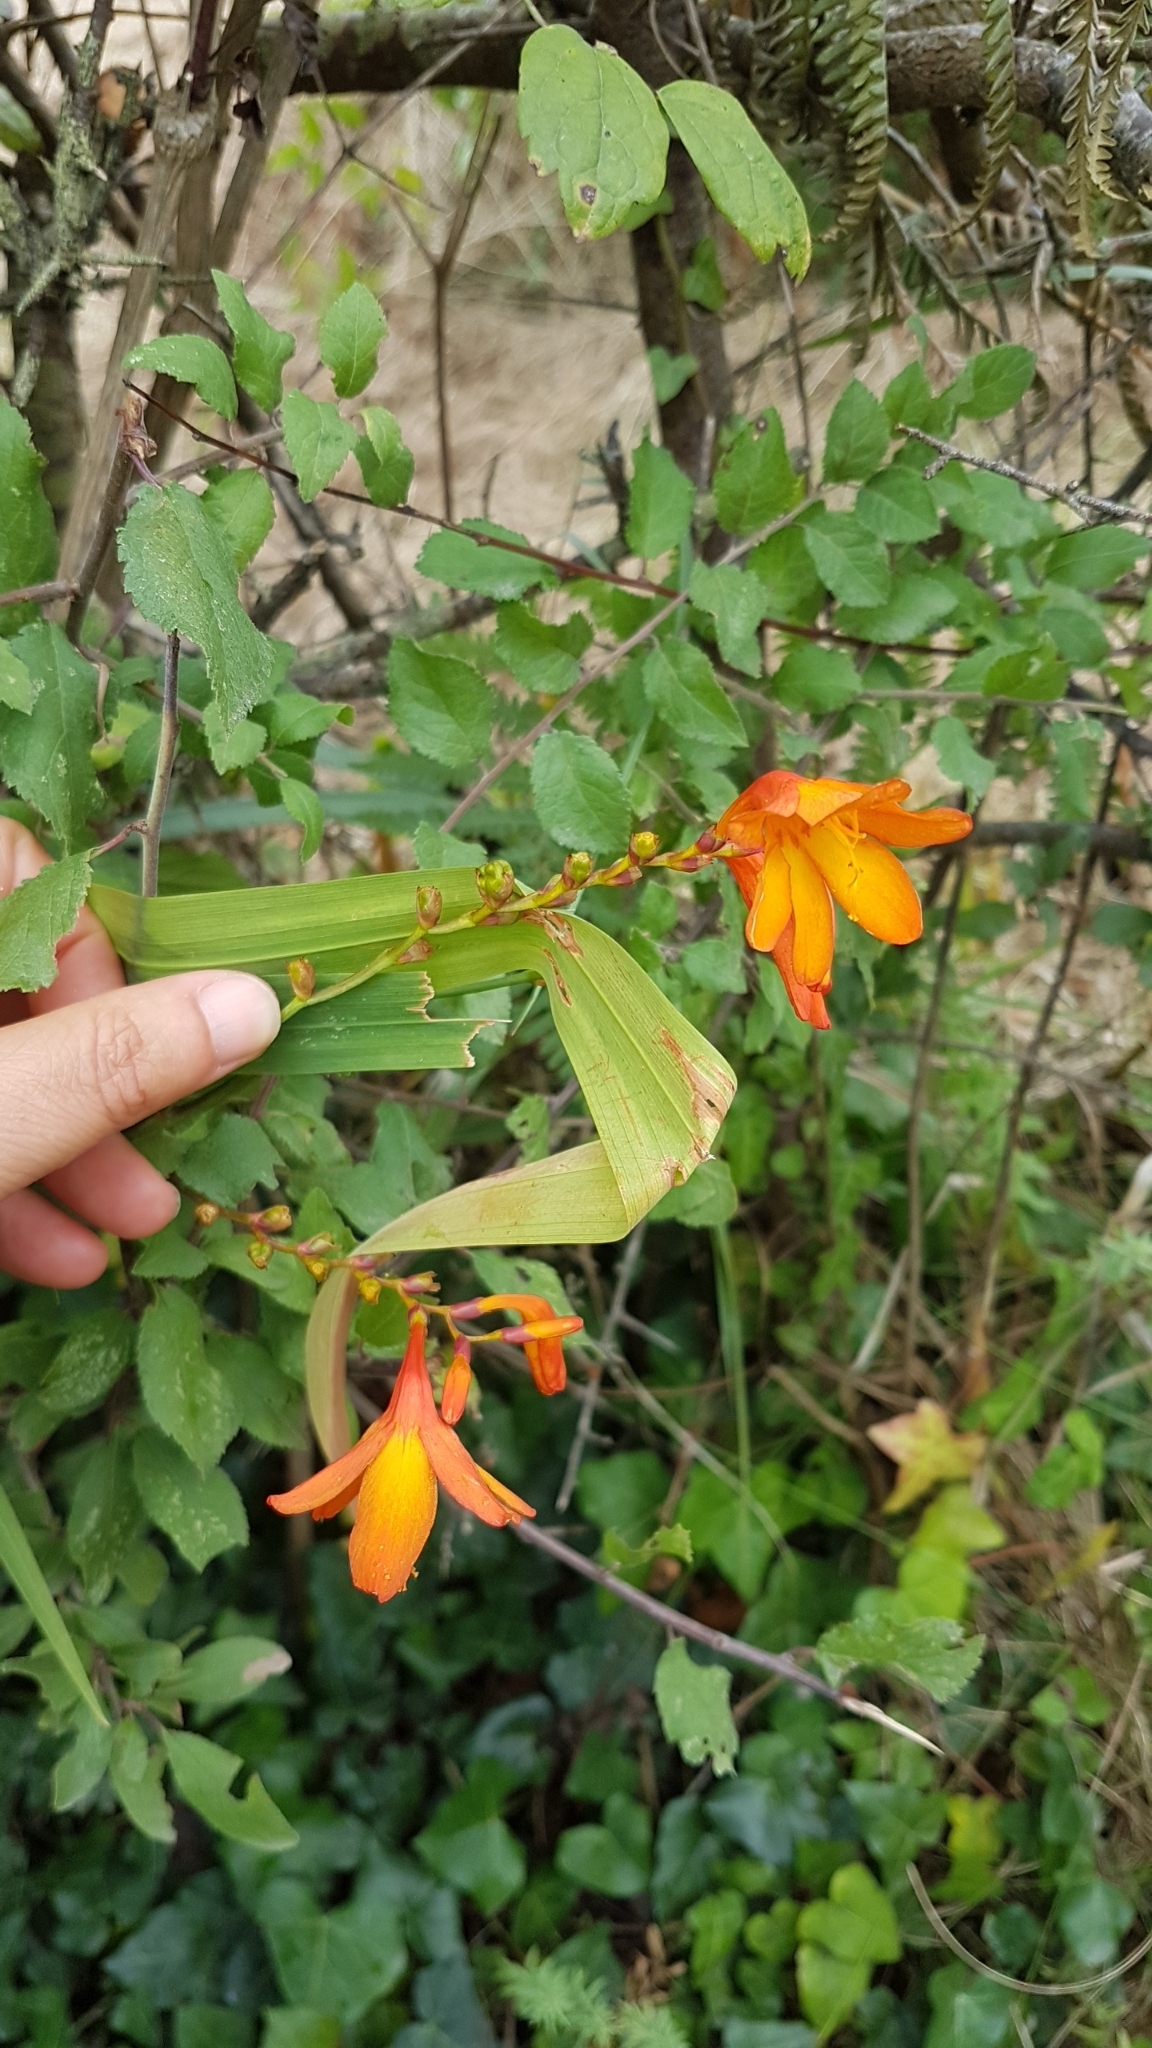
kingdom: Plantae
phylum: Tracheophyta
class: Liliopsida
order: Asparagales
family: Iridaceae
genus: Crocosmia
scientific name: Crocosmia crocosmiiflora
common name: Montbretia
